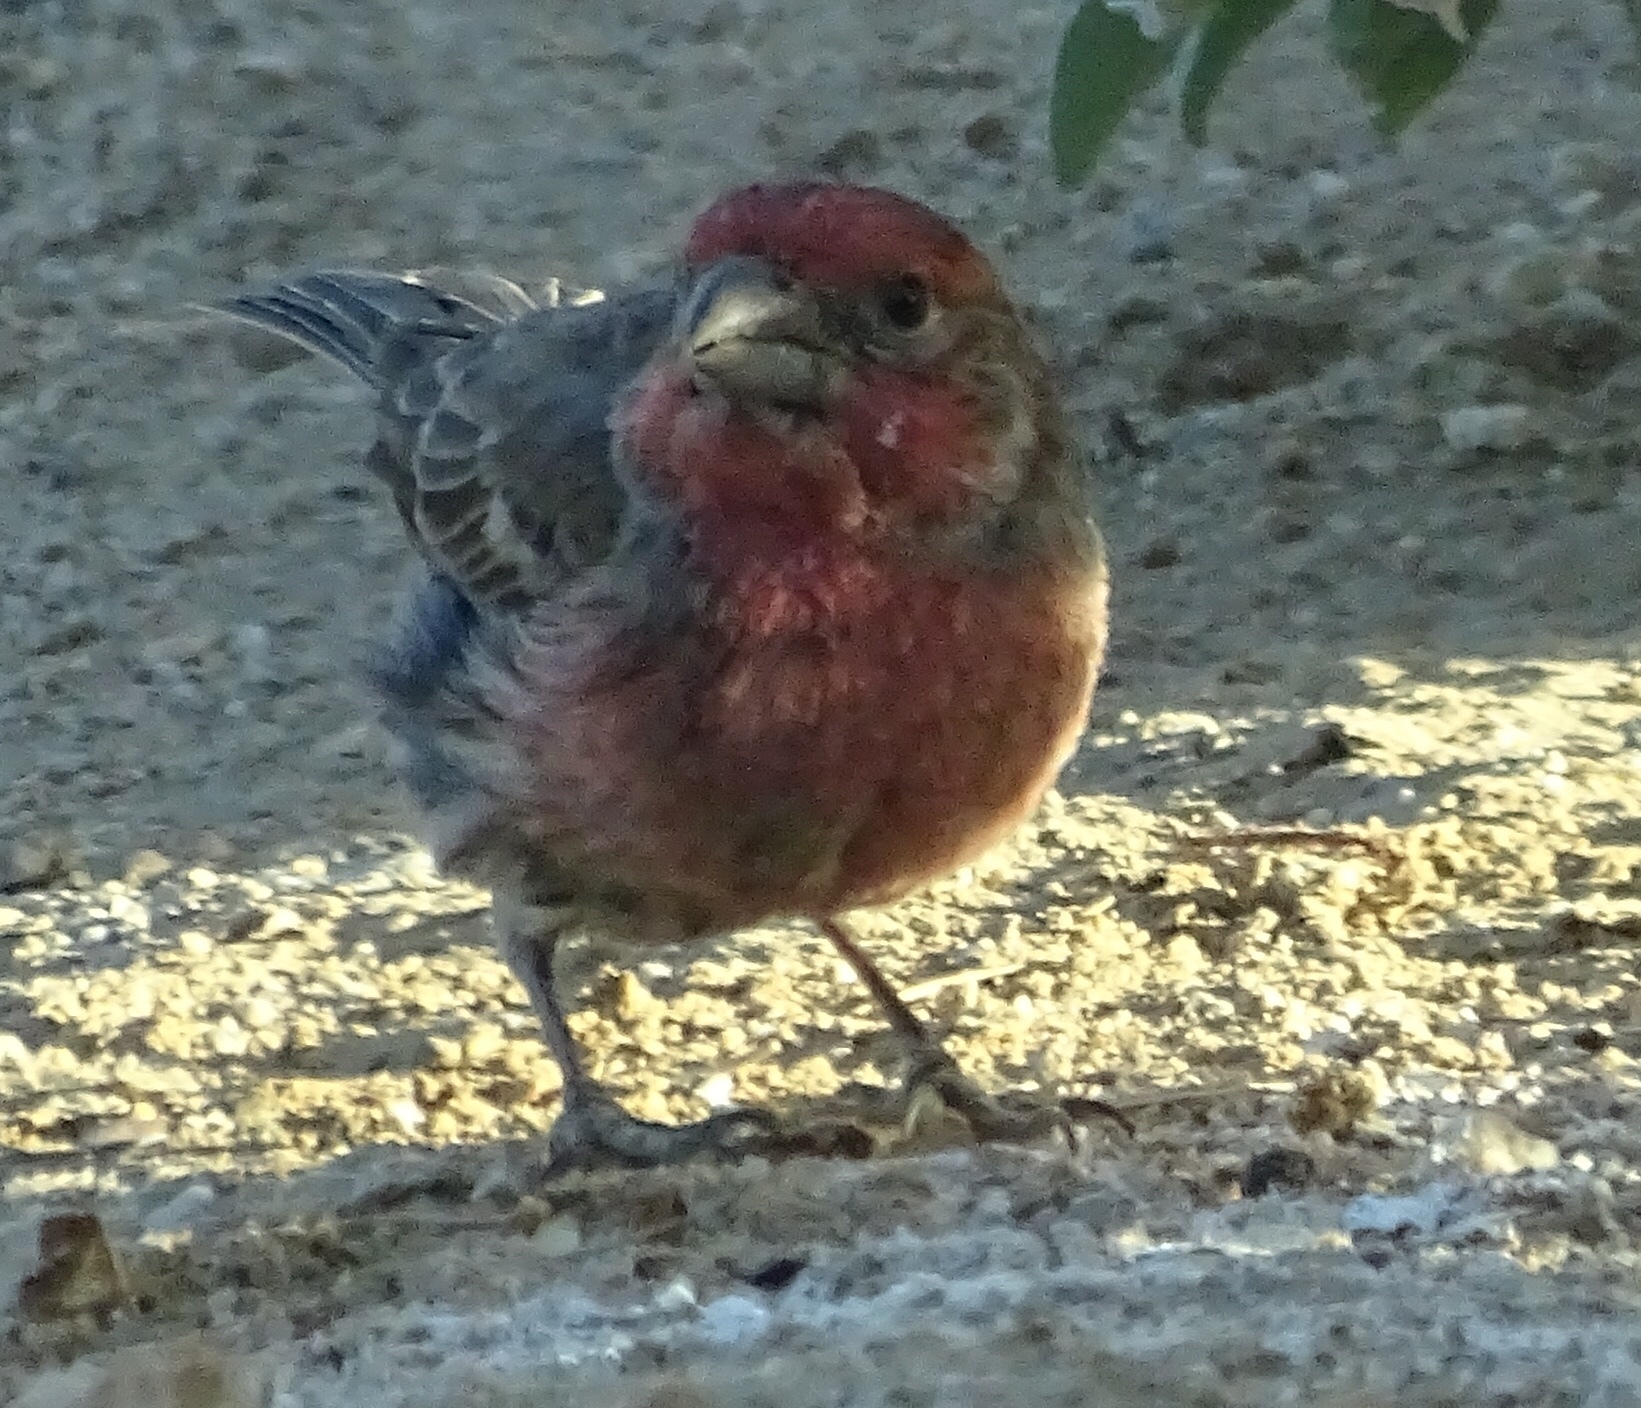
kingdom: Animalia
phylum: Chordata
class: Aves
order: Passeriformes
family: Fringillidae
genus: Haemorhous
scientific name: Haemorhous mexicanus
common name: House finch
